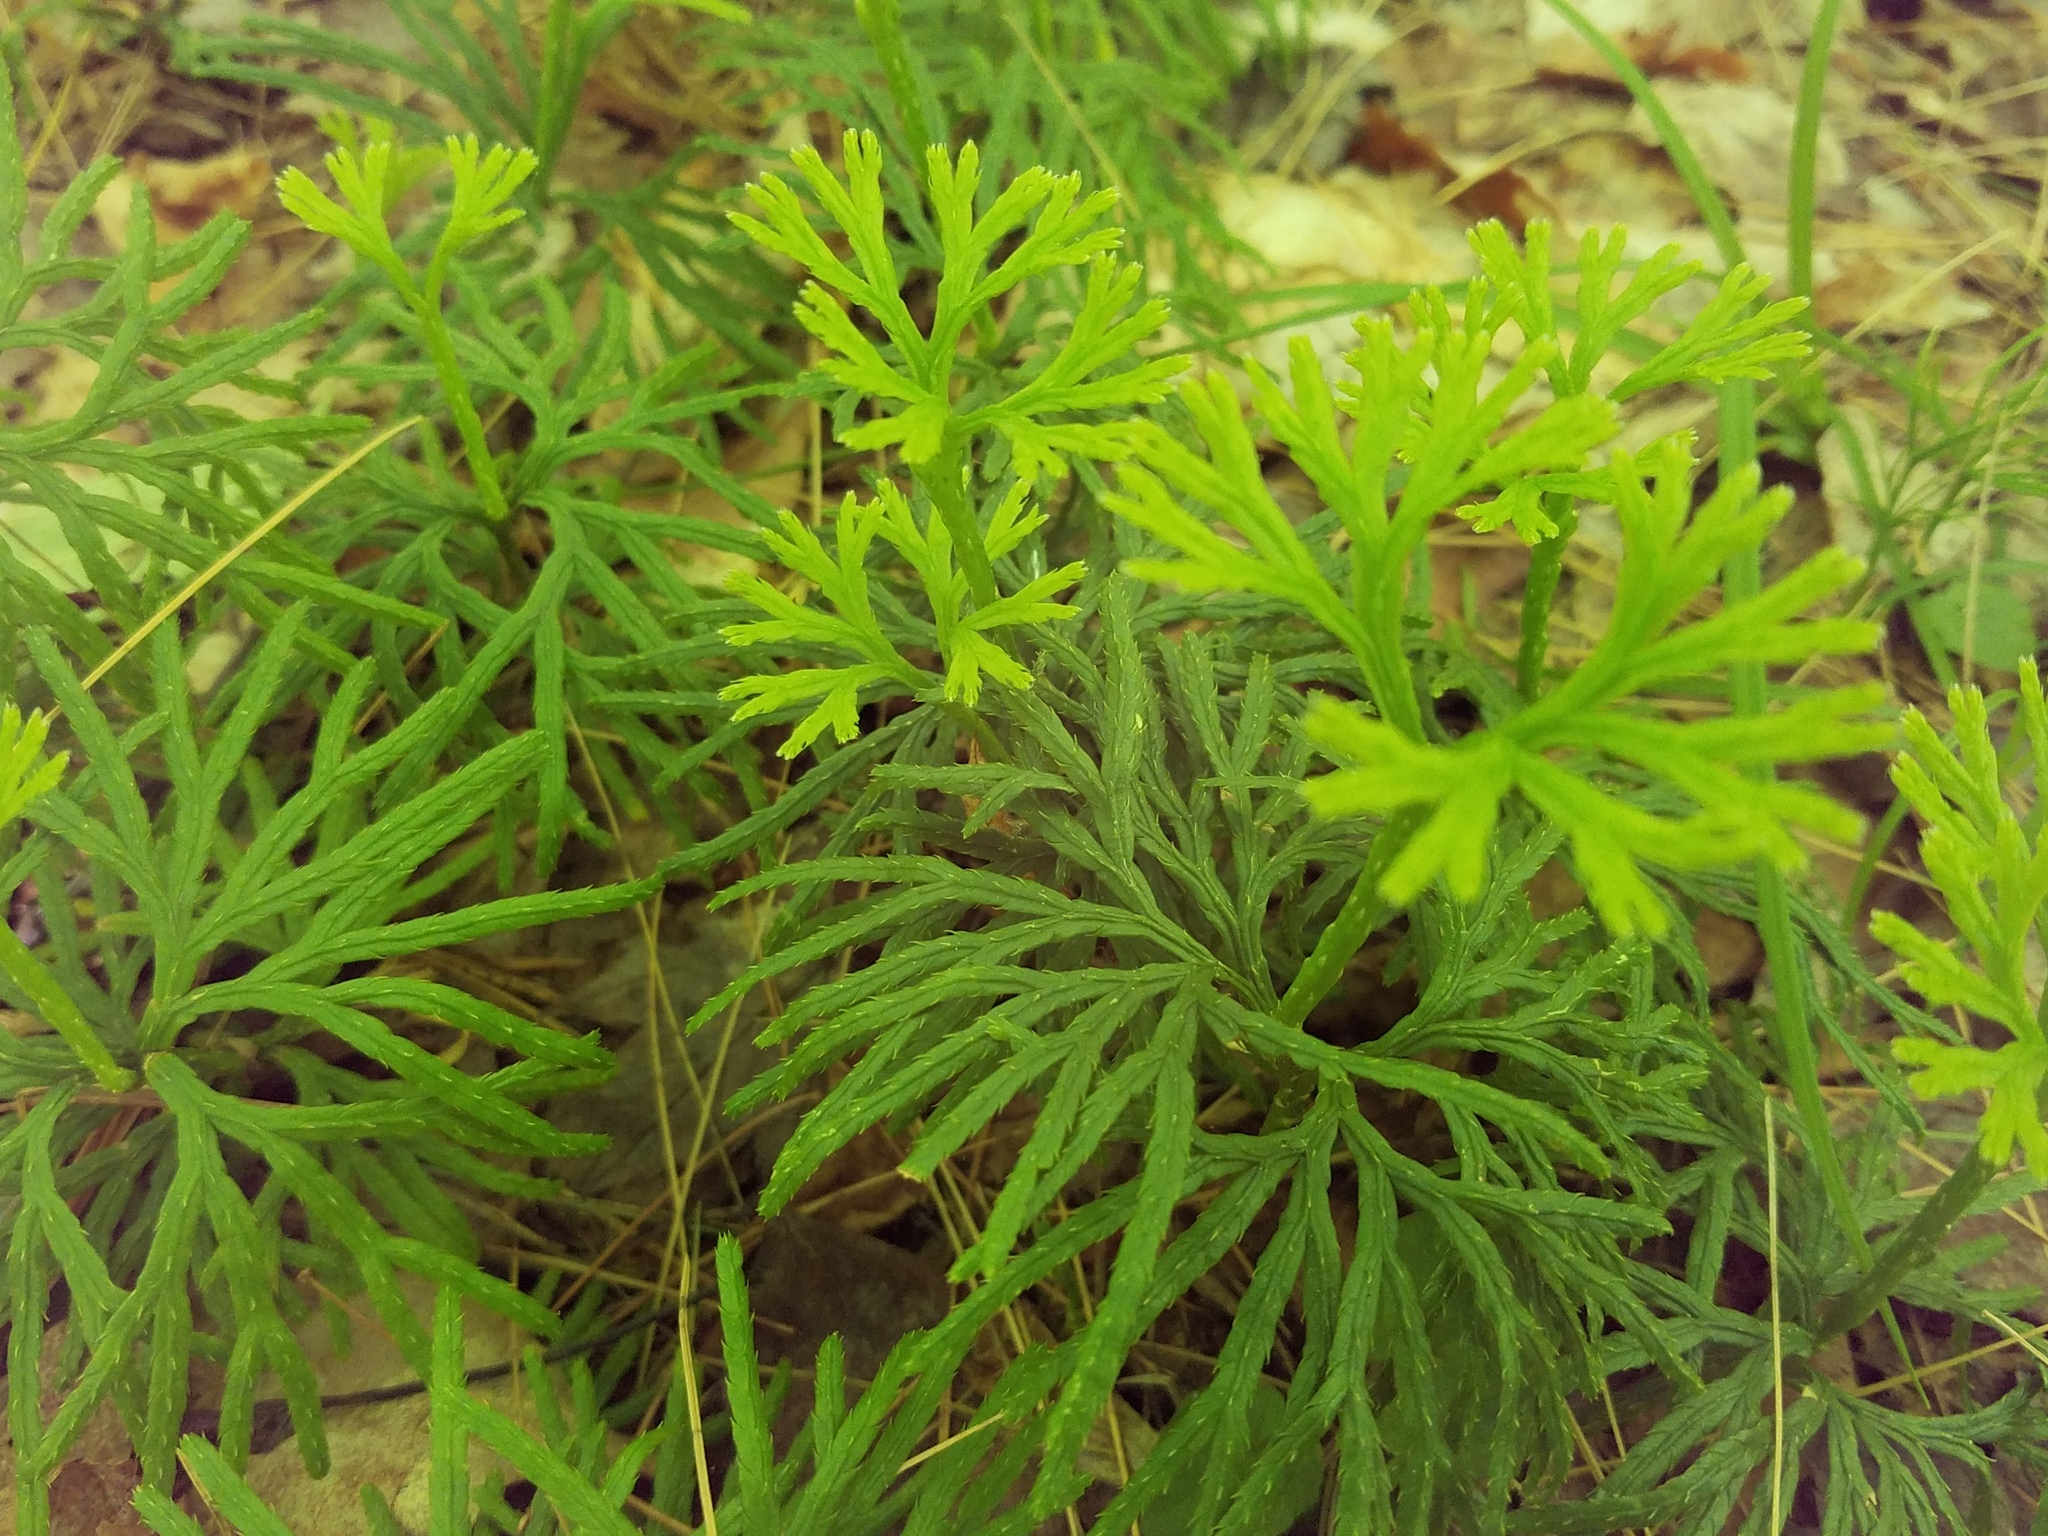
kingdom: Plantae
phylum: Tracheophyta
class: Lycopodiopsida
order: Lycopodiales
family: Lycopodiaceae
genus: Diphasiastrum
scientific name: Diphasiastrum digitatum
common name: Southern running-pine
